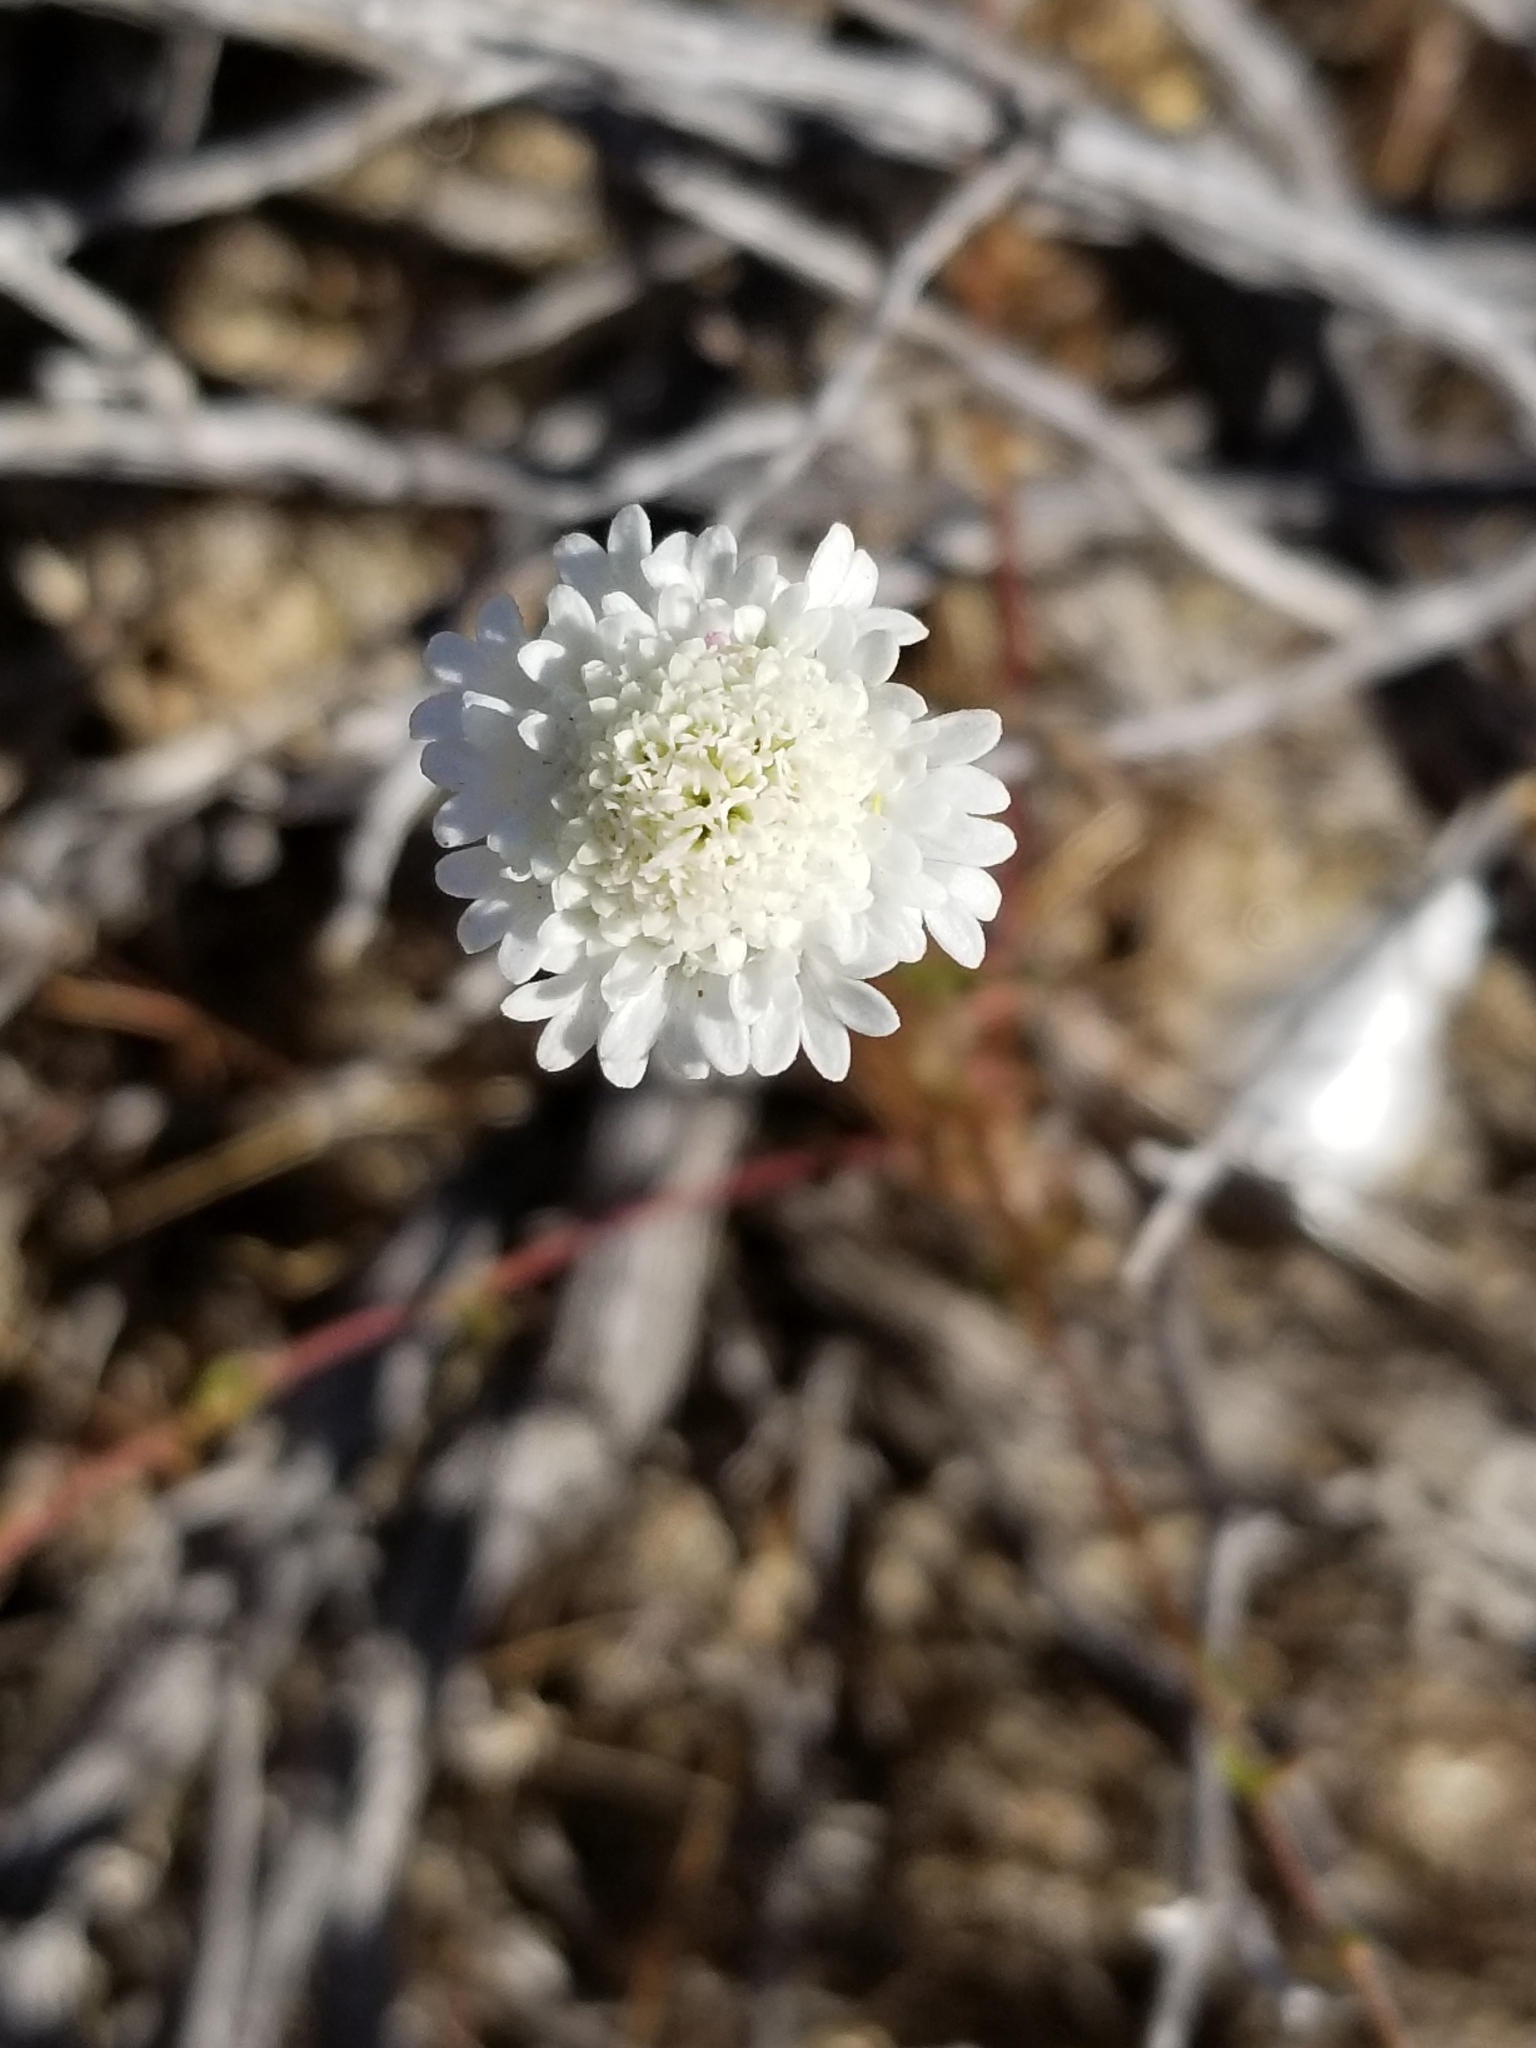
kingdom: Plantae
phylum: Tracheophyta
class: Magnoliopsida
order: Asterales
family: Asteraceae
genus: Chaenactis
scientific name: Chaenactis fremontii
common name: Fremont pincushion
